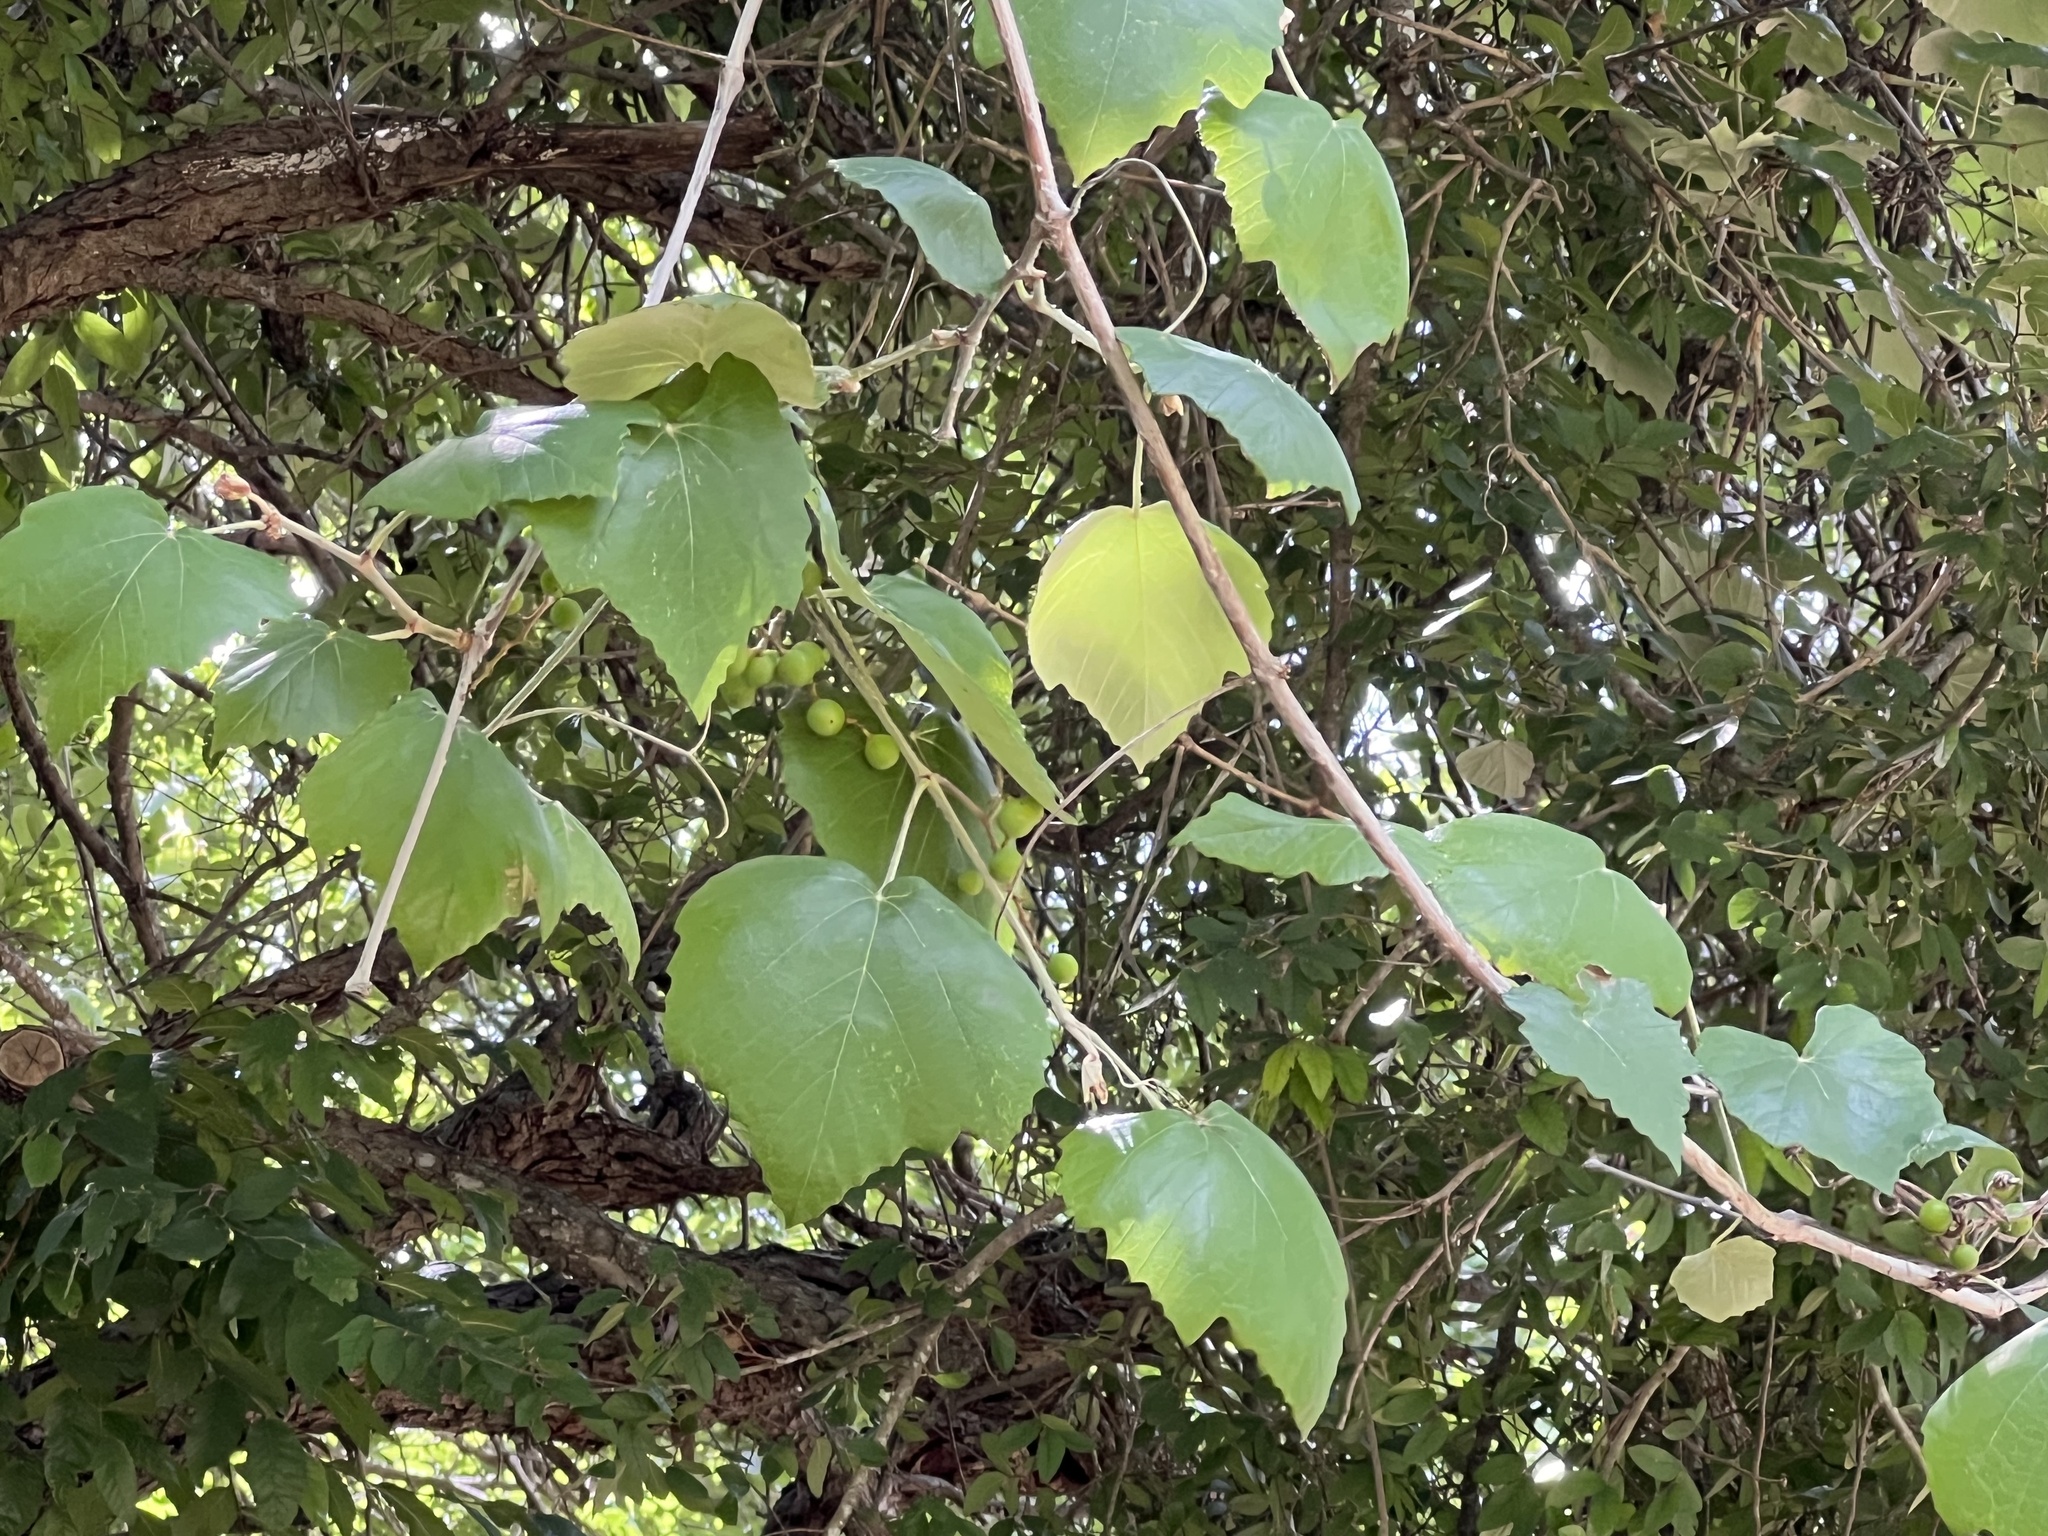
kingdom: Plantae
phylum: Tracheophyta
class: Magnoliopsida
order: Vitales
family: Vitaceae
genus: Vitis
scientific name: Vitis mustangensis
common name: Mustang grape
